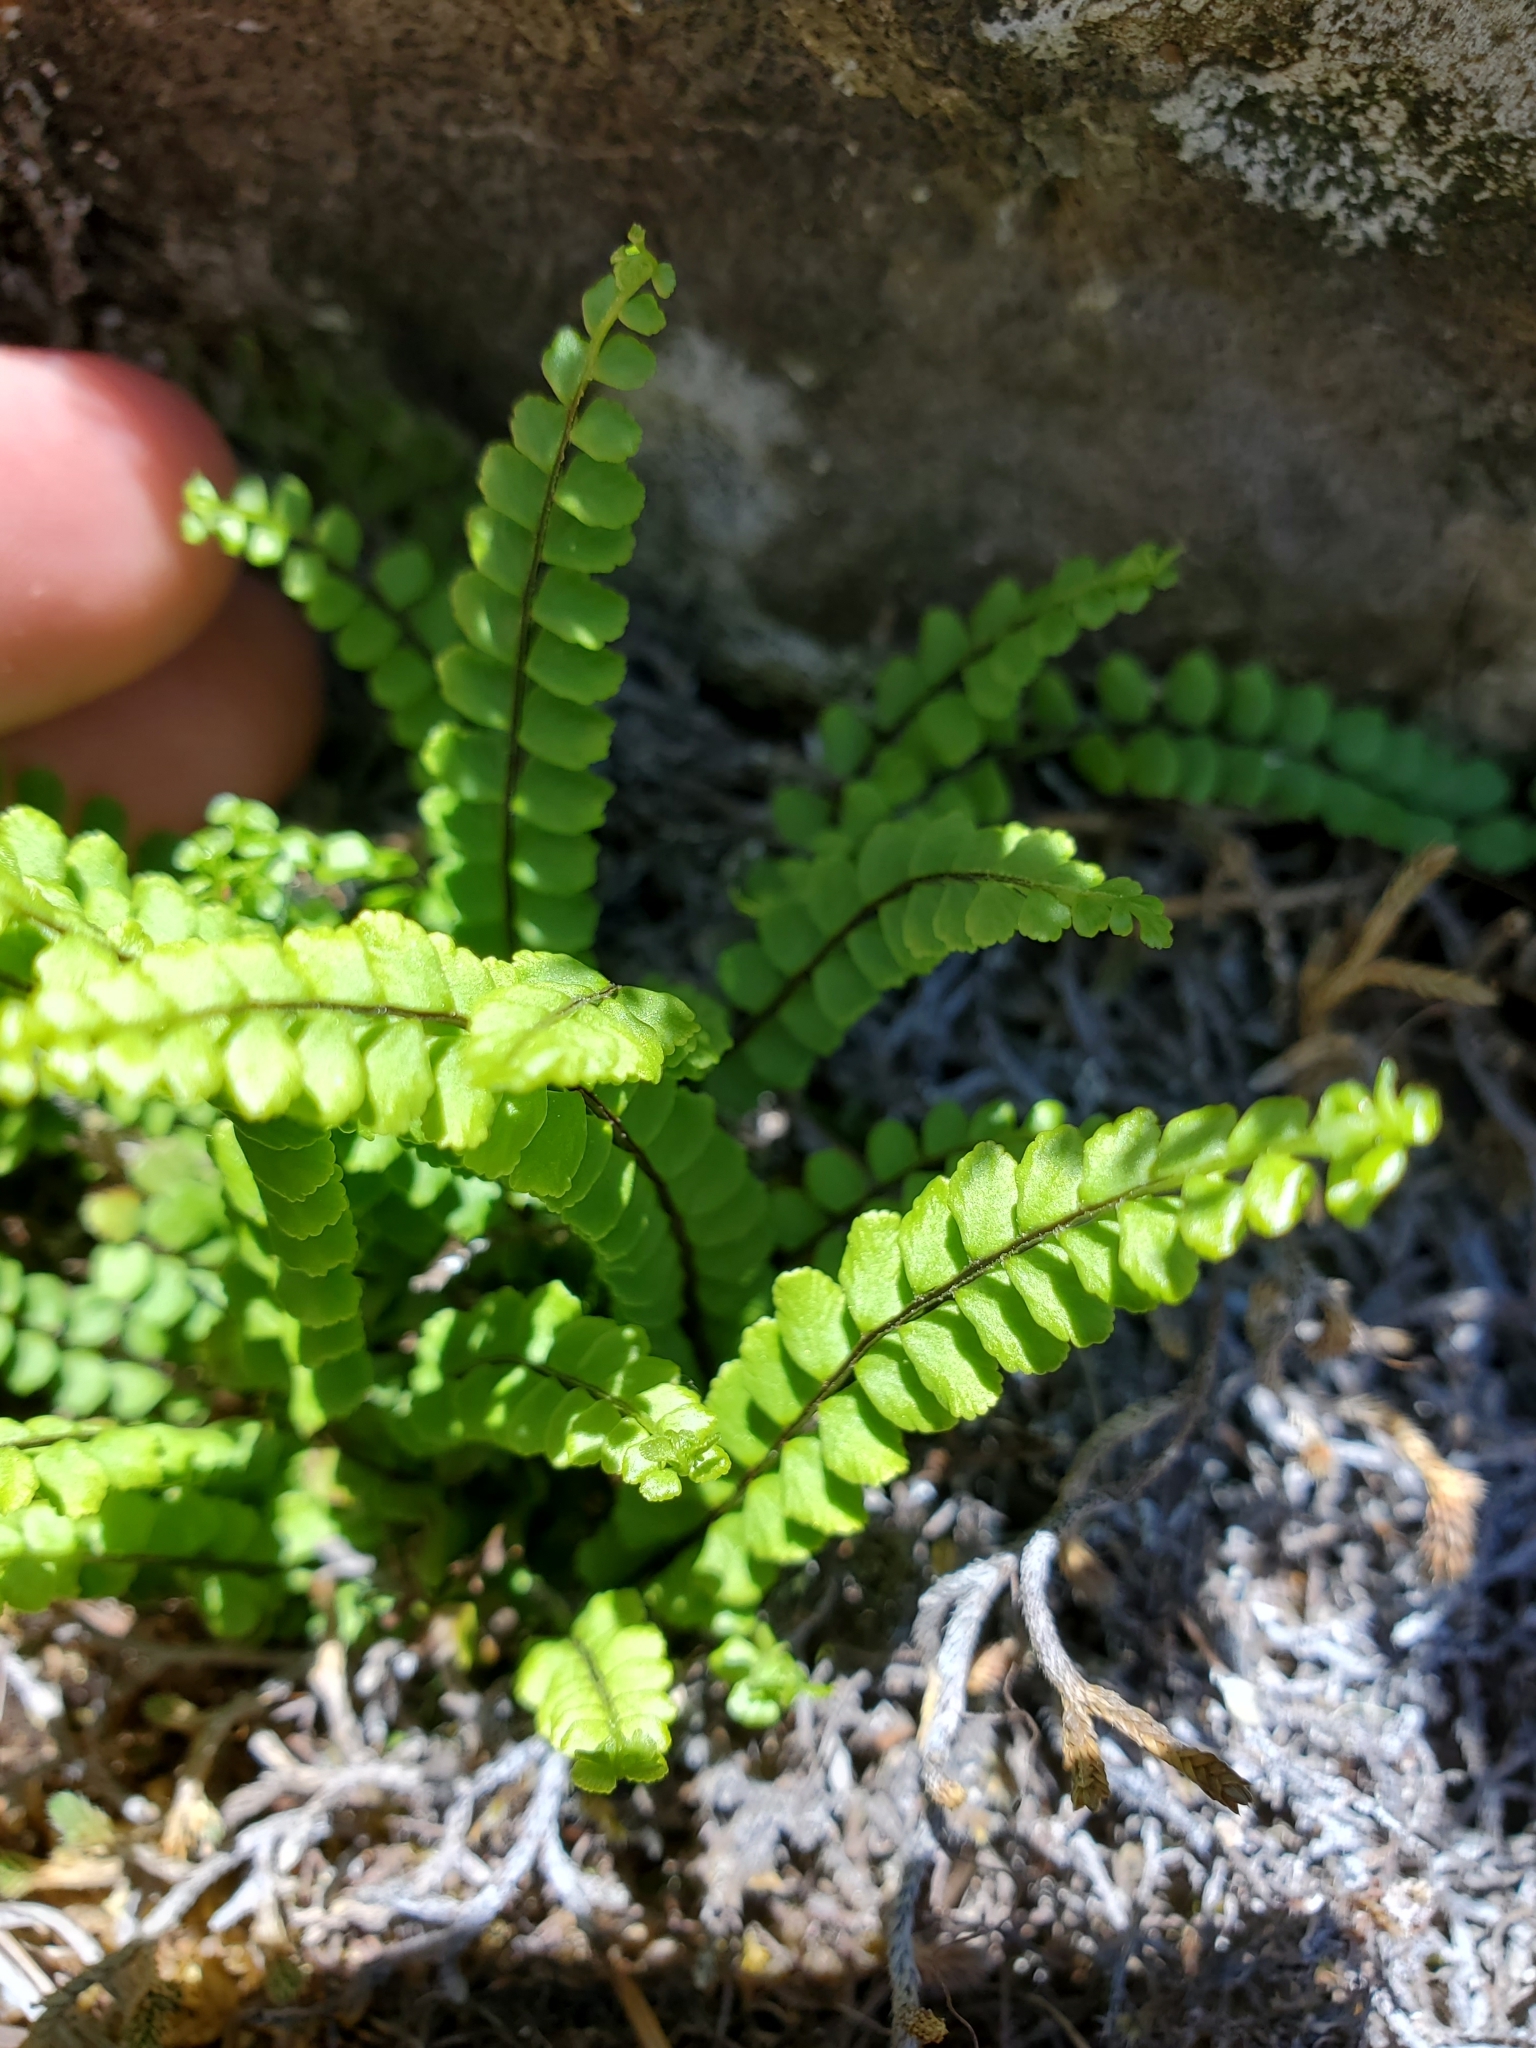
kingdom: Plantae
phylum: Tracheophyta
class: Polypodiopsida
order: Polypodiales
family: Aspleniaceae
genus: Asplenium
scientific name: Asplenium trichomanes
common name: Maidenhair spleenwort
